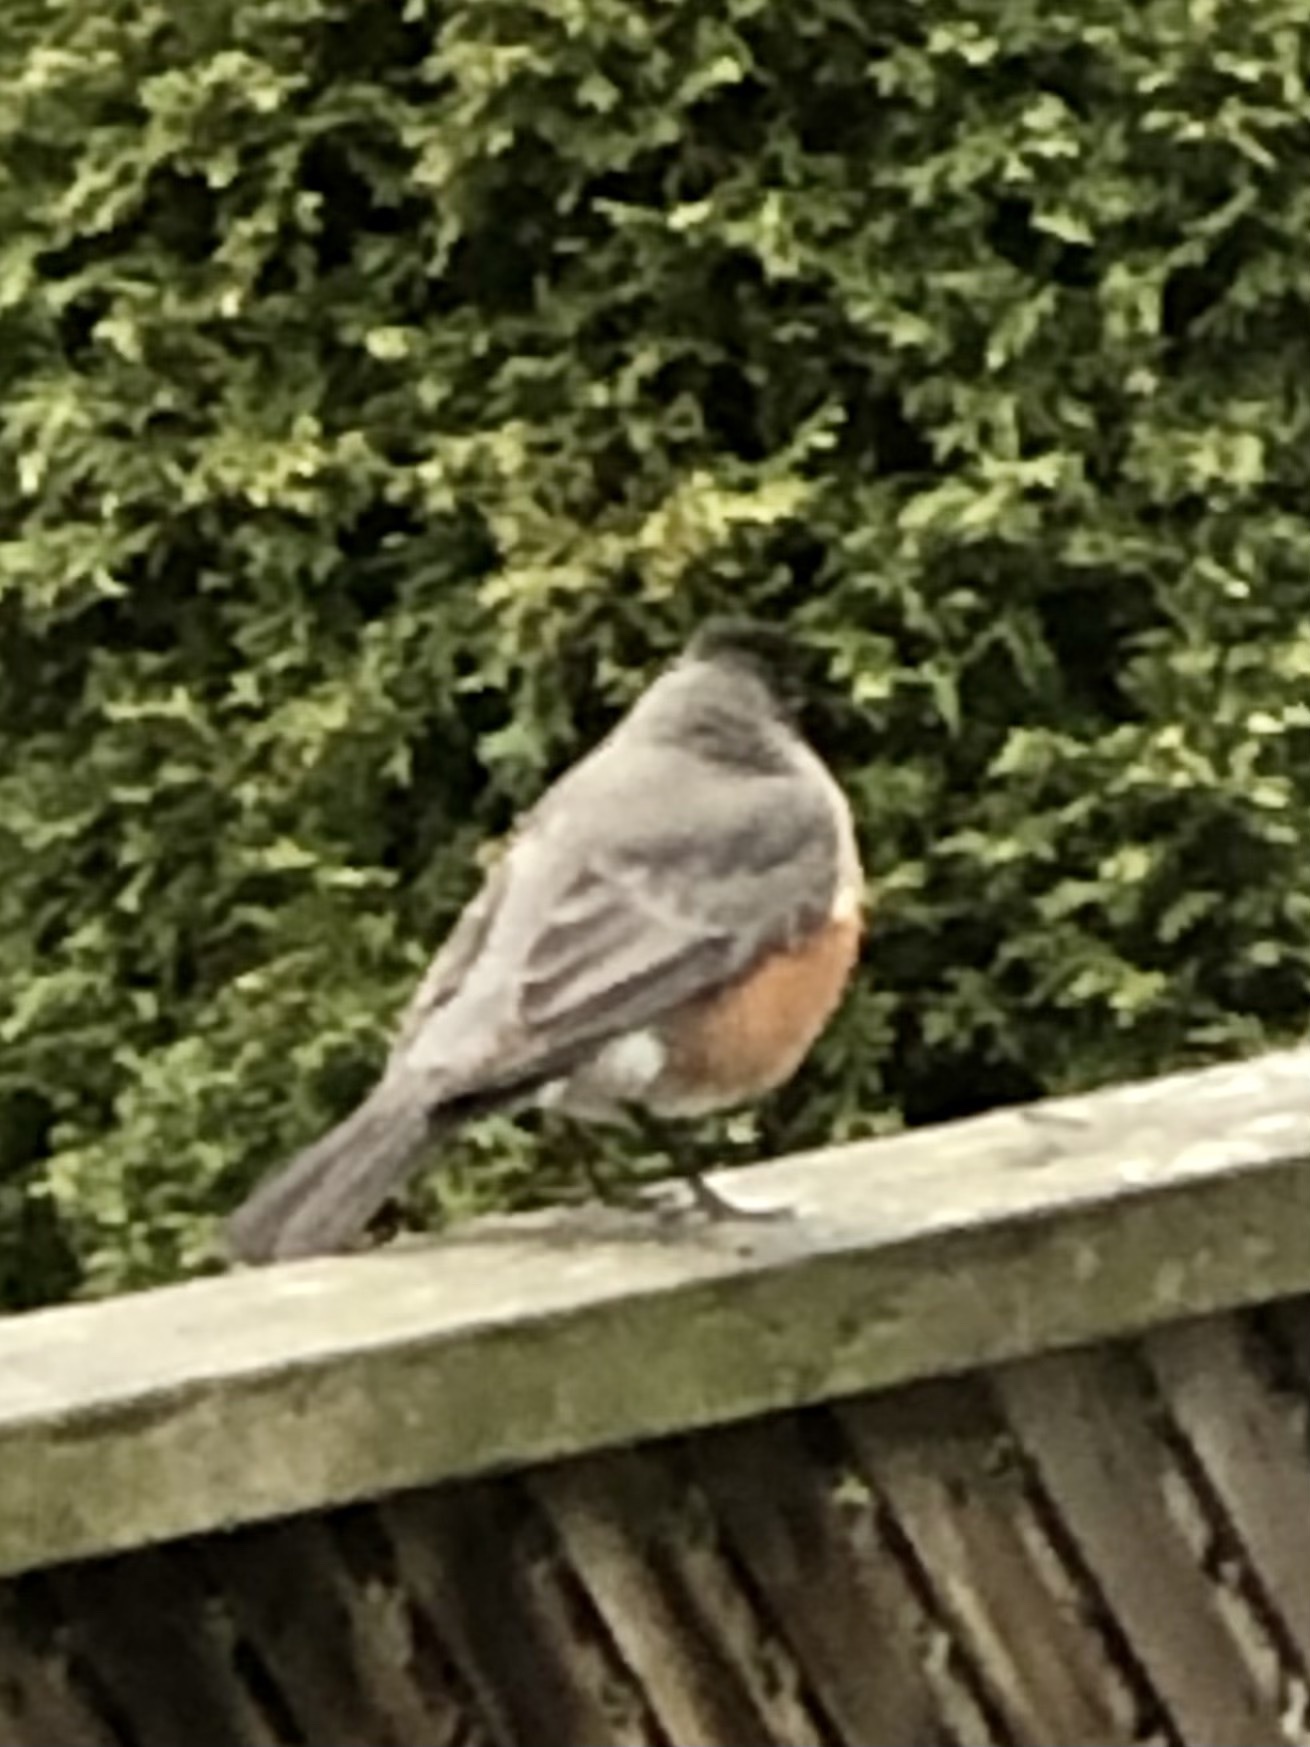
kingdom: Animalia
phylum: Chordata
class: Aves
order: Passeriformes
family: Turdidae
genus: Turdus
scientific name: Turdus migratorius
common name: American robin
